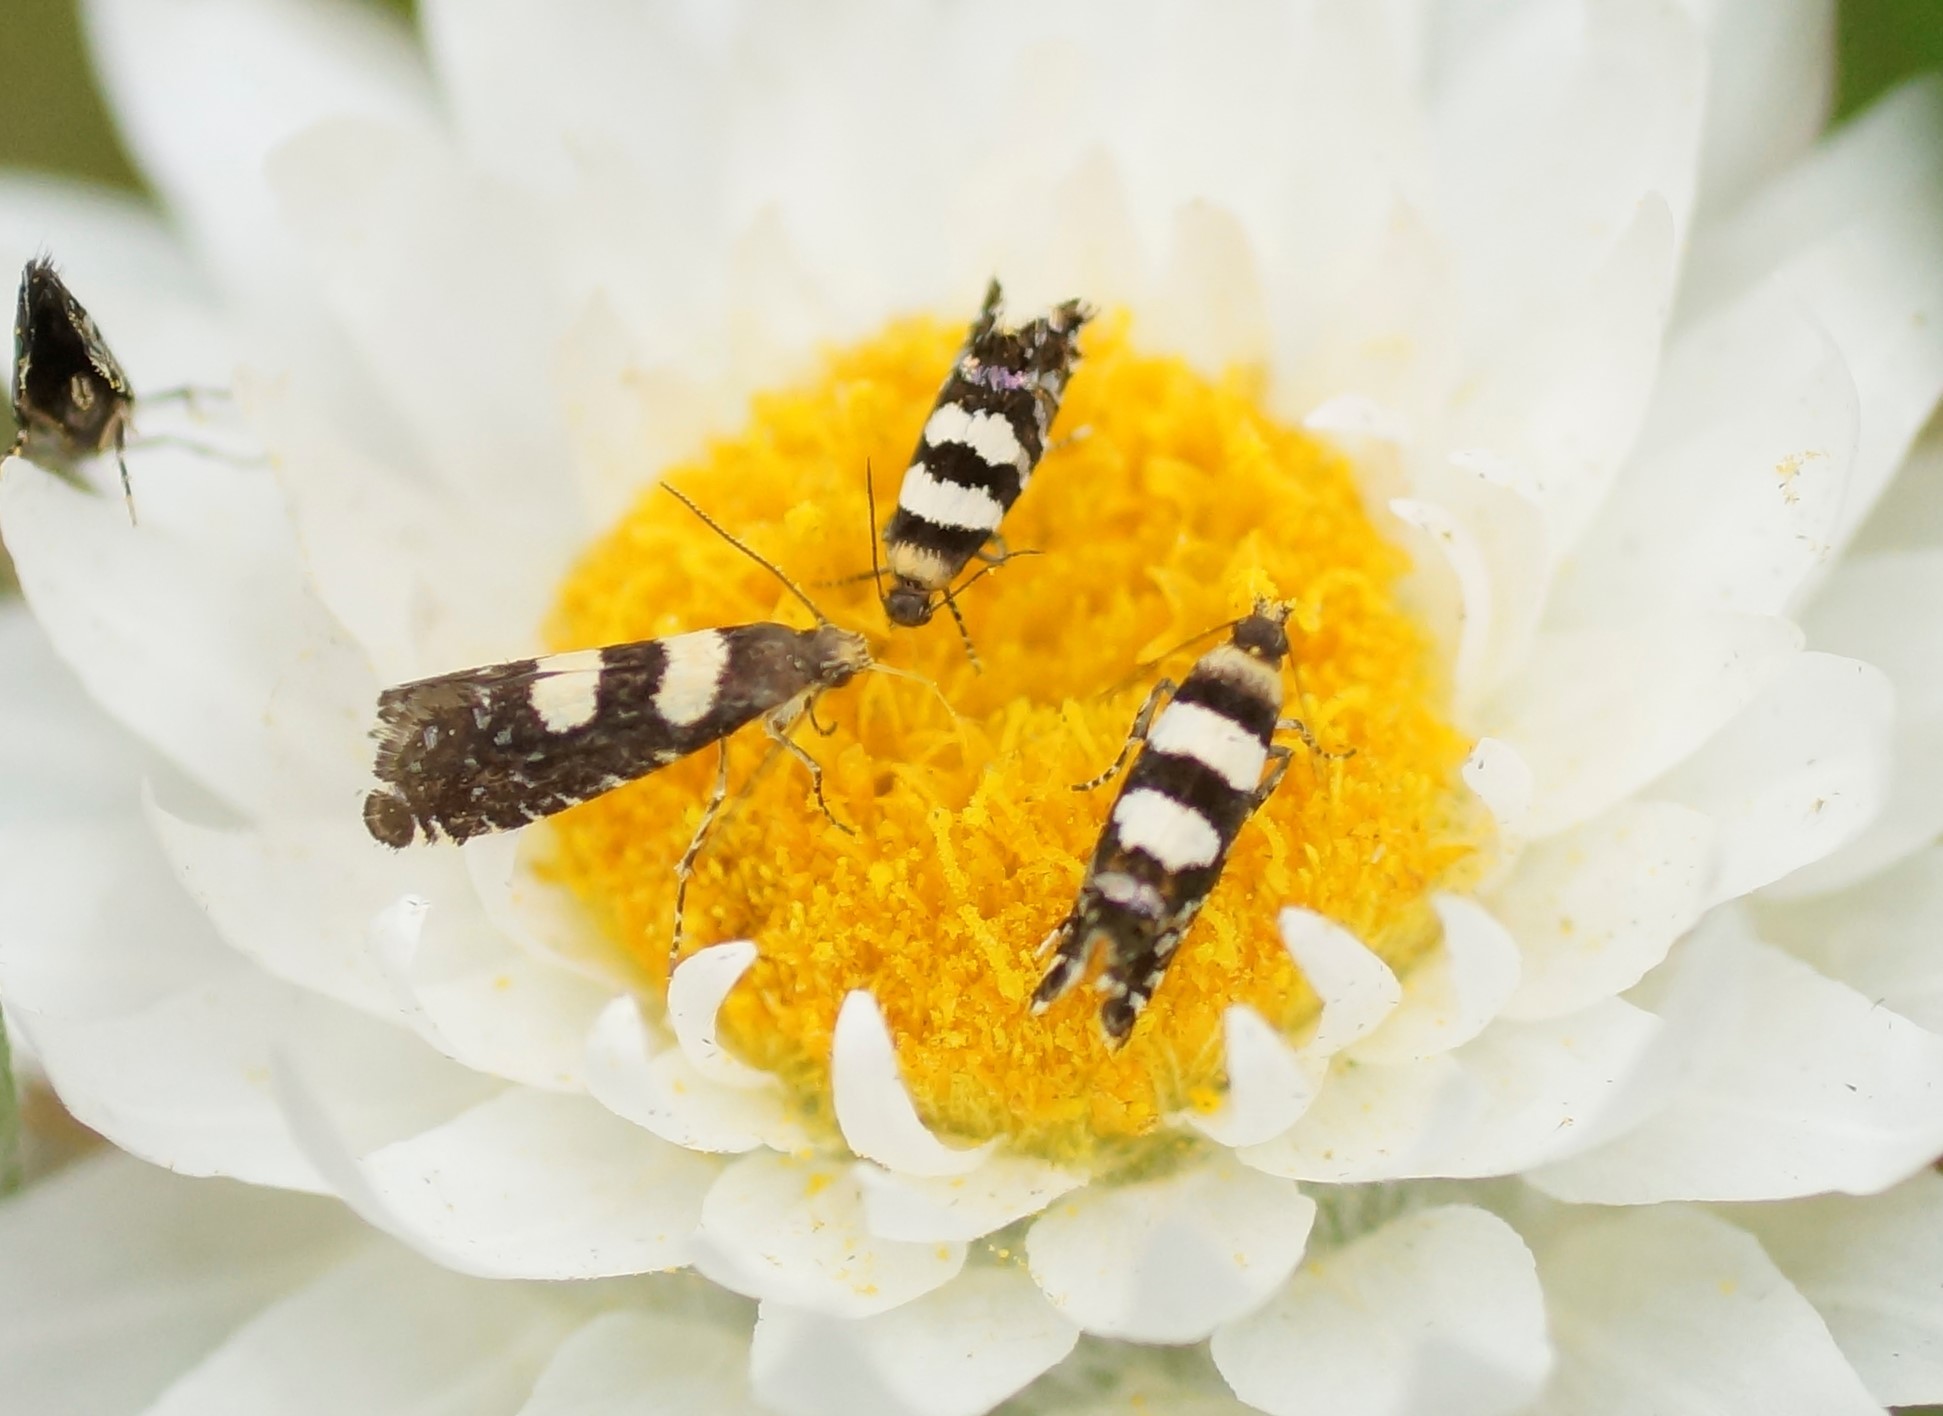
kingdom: Animalia
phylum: Arthropoda
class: Insecta
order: Lepidoptera
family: Glyphipterigidae
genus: Glyphipterix
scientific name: Glyphipterix chrysoplanetis
